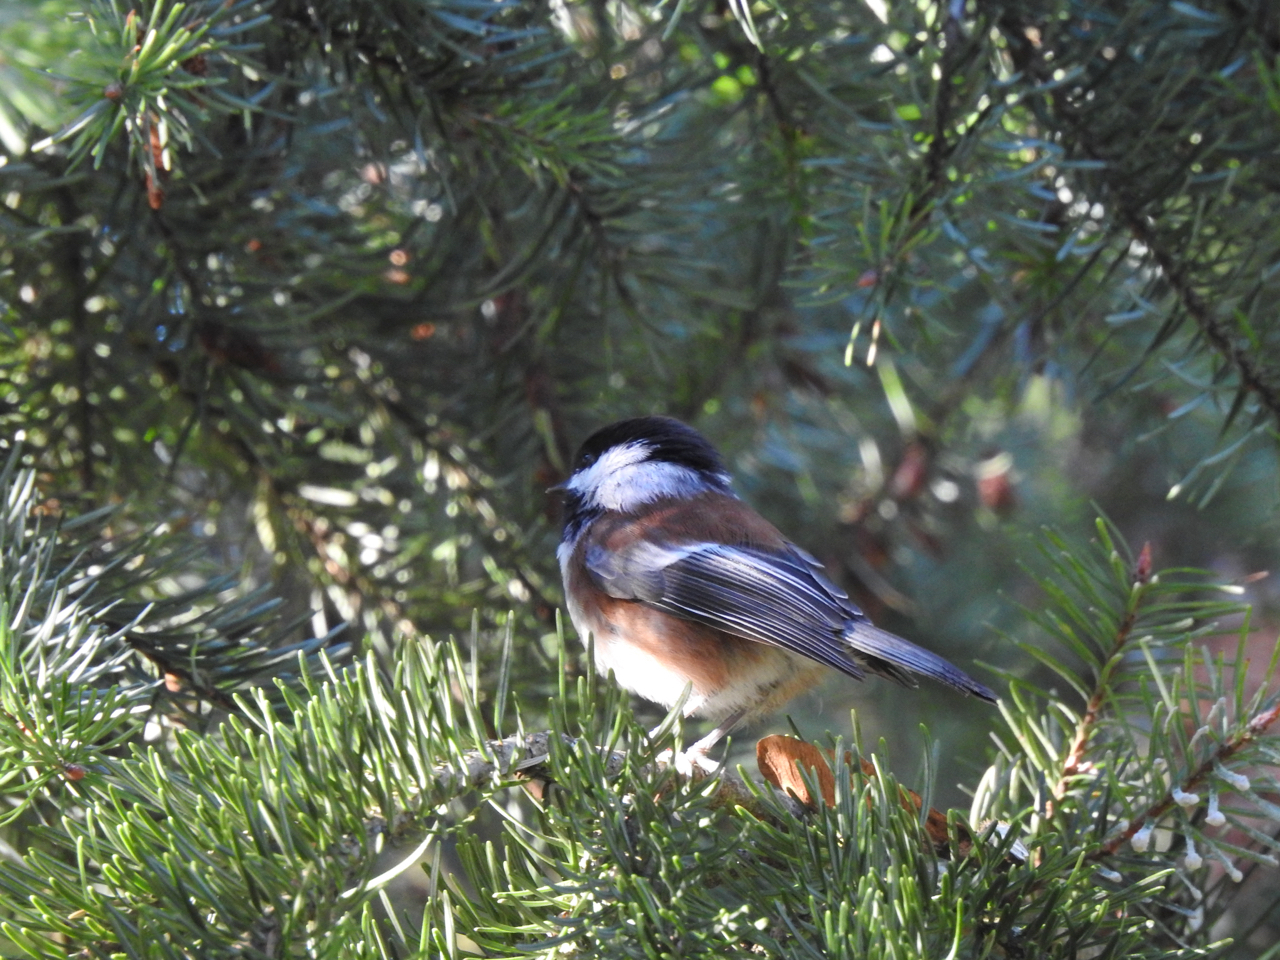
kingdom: Animalia
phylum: Chordata
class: Aves
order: Passeriformes
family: Paridae
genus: Poecile
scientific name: Poecile rufescens
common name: Chestnut-backed chickadee
